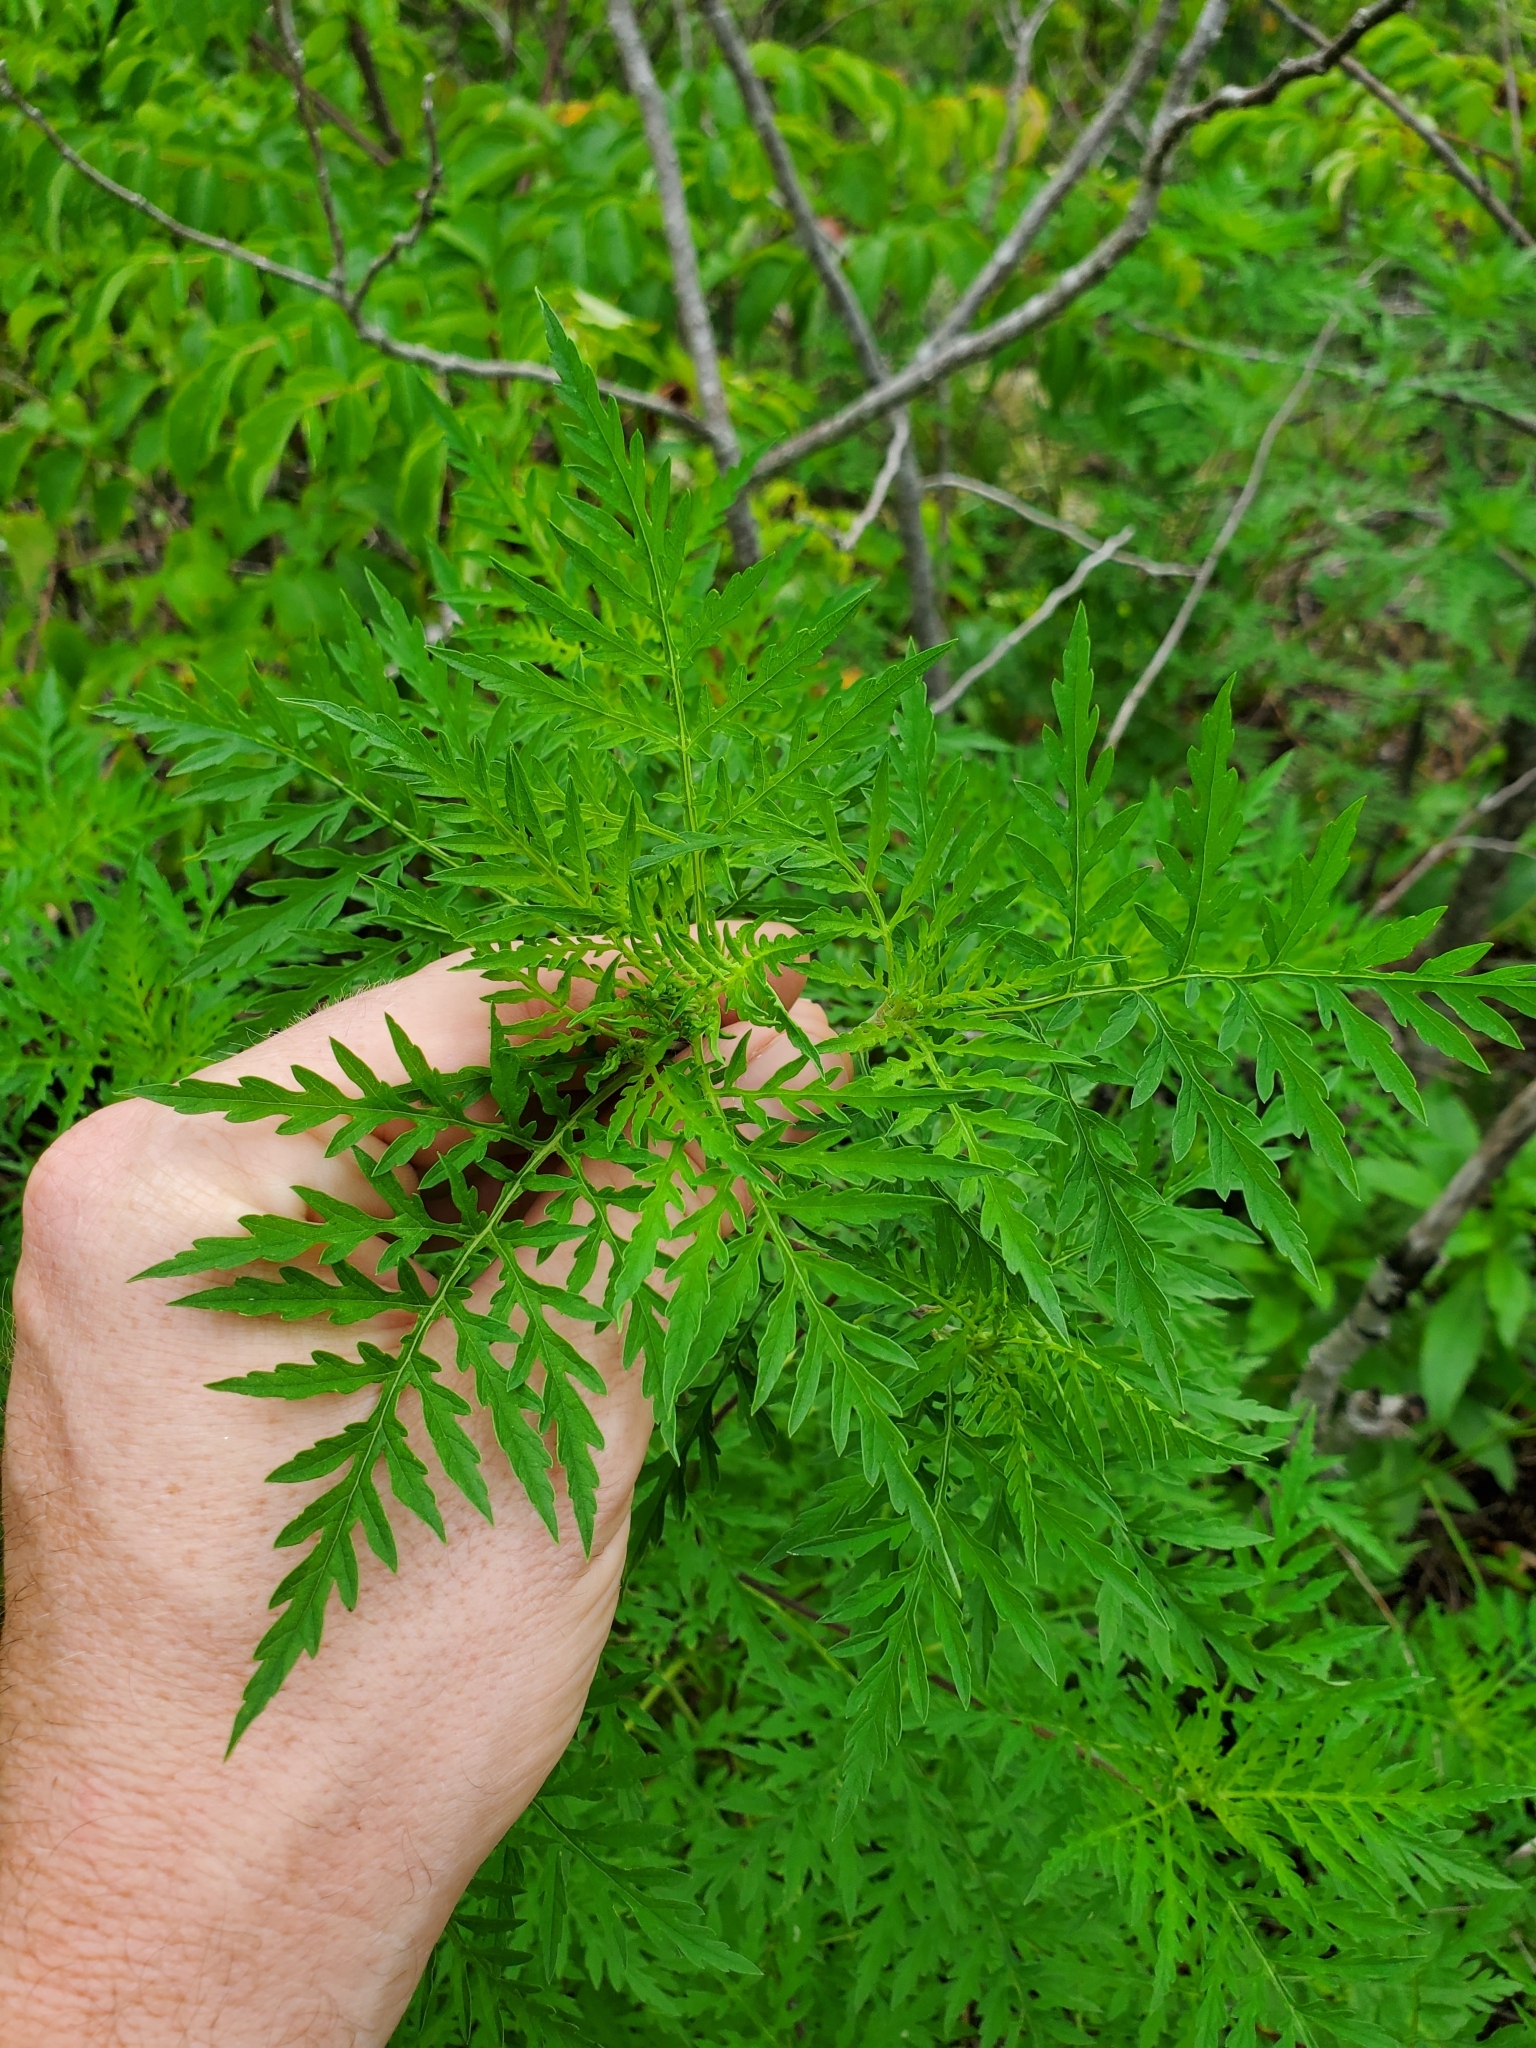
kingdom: Plantae
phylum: Tracheophyta
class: Magnoliopsida
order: Asterales
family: Asteraceae
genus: Ambrosia
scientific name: Ambrosia artemisiifolia
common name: Annual ragweed
